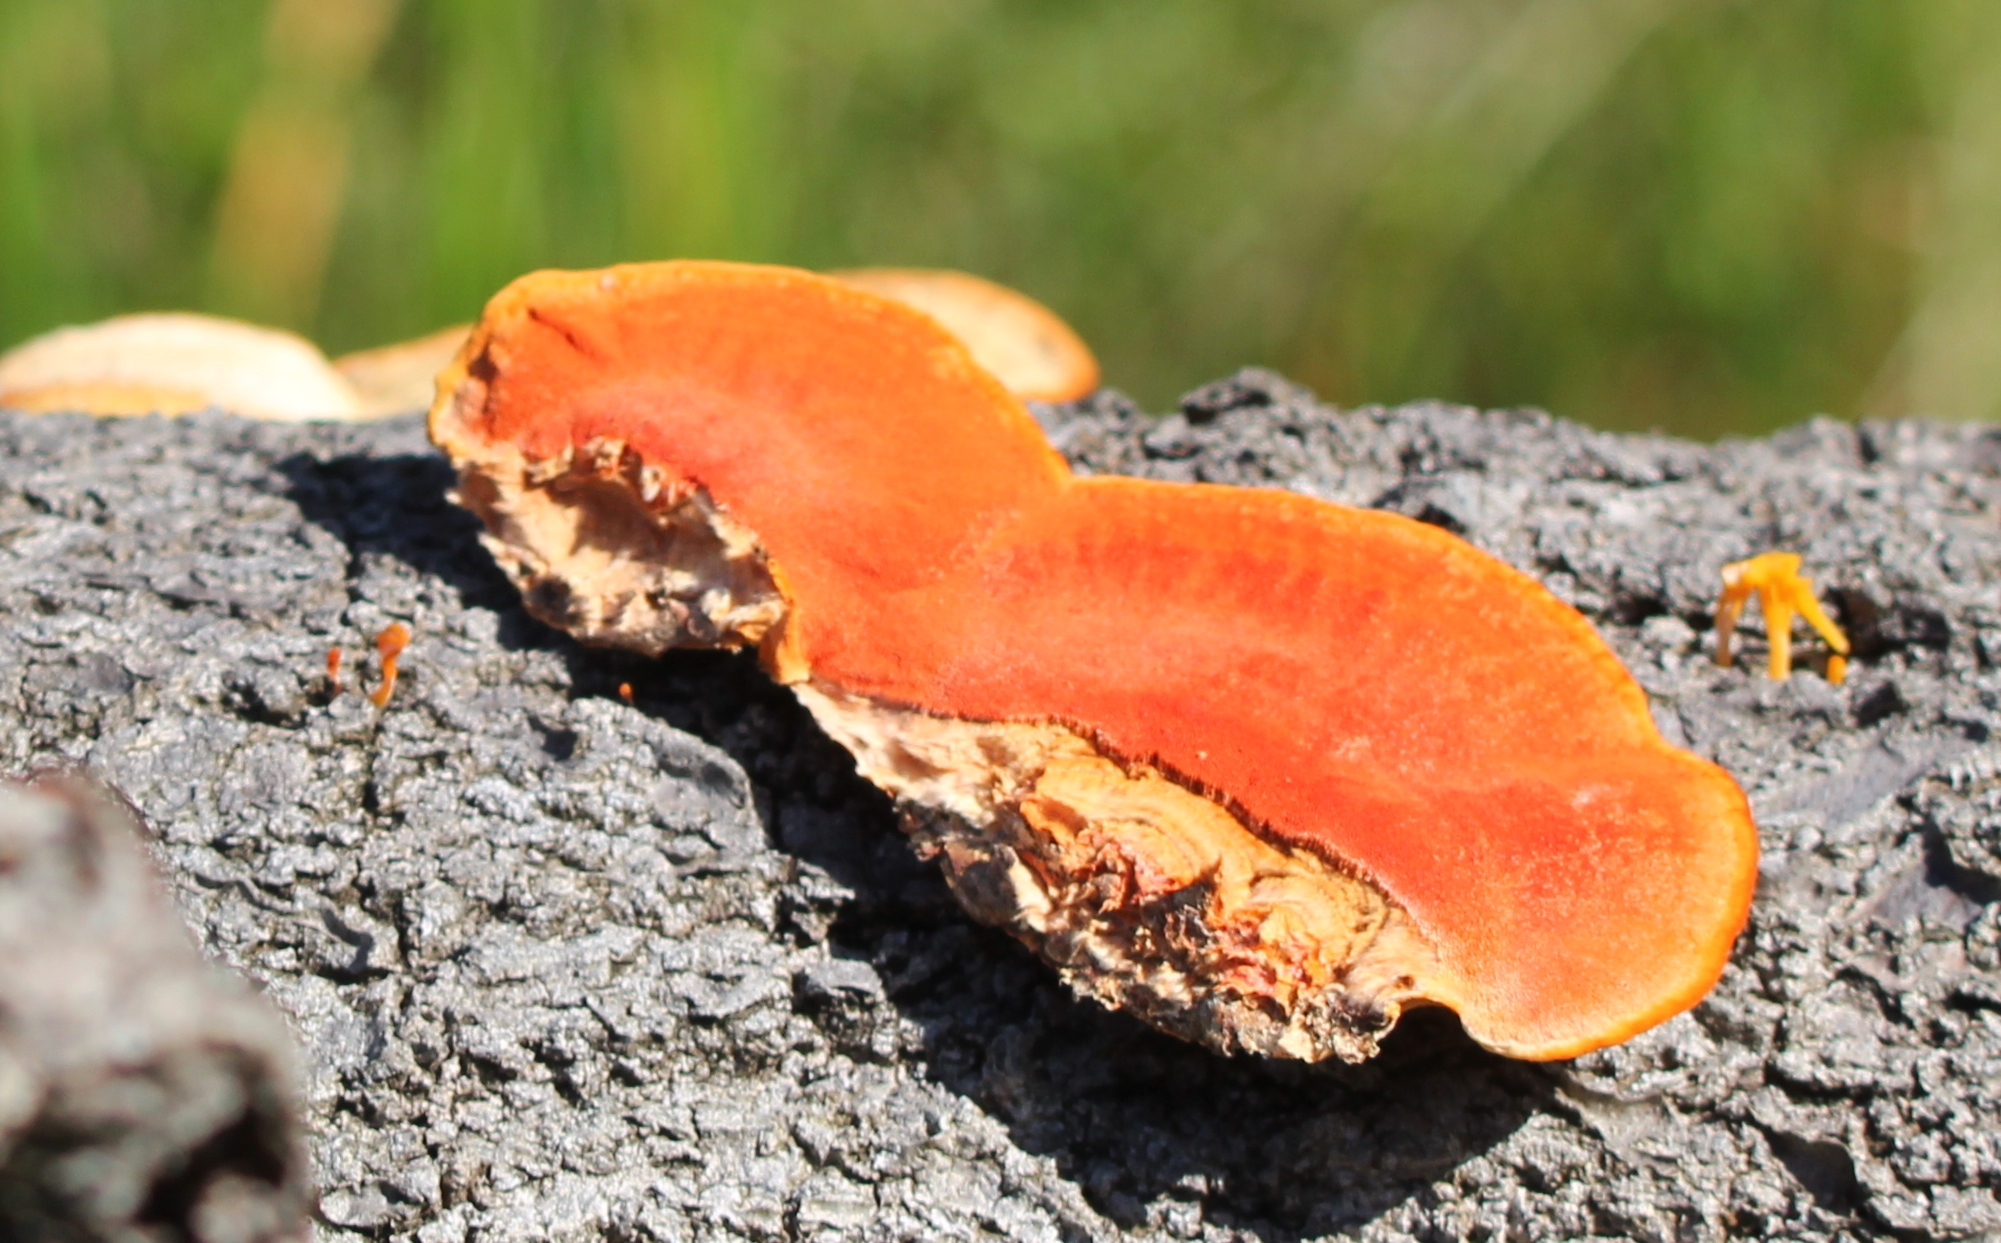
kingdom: Fungi
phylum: Basidiomycota
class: Agaricomycetes
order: Polyporales
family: Polyporaceae
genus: Trametes
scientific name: Trametes coccinea
